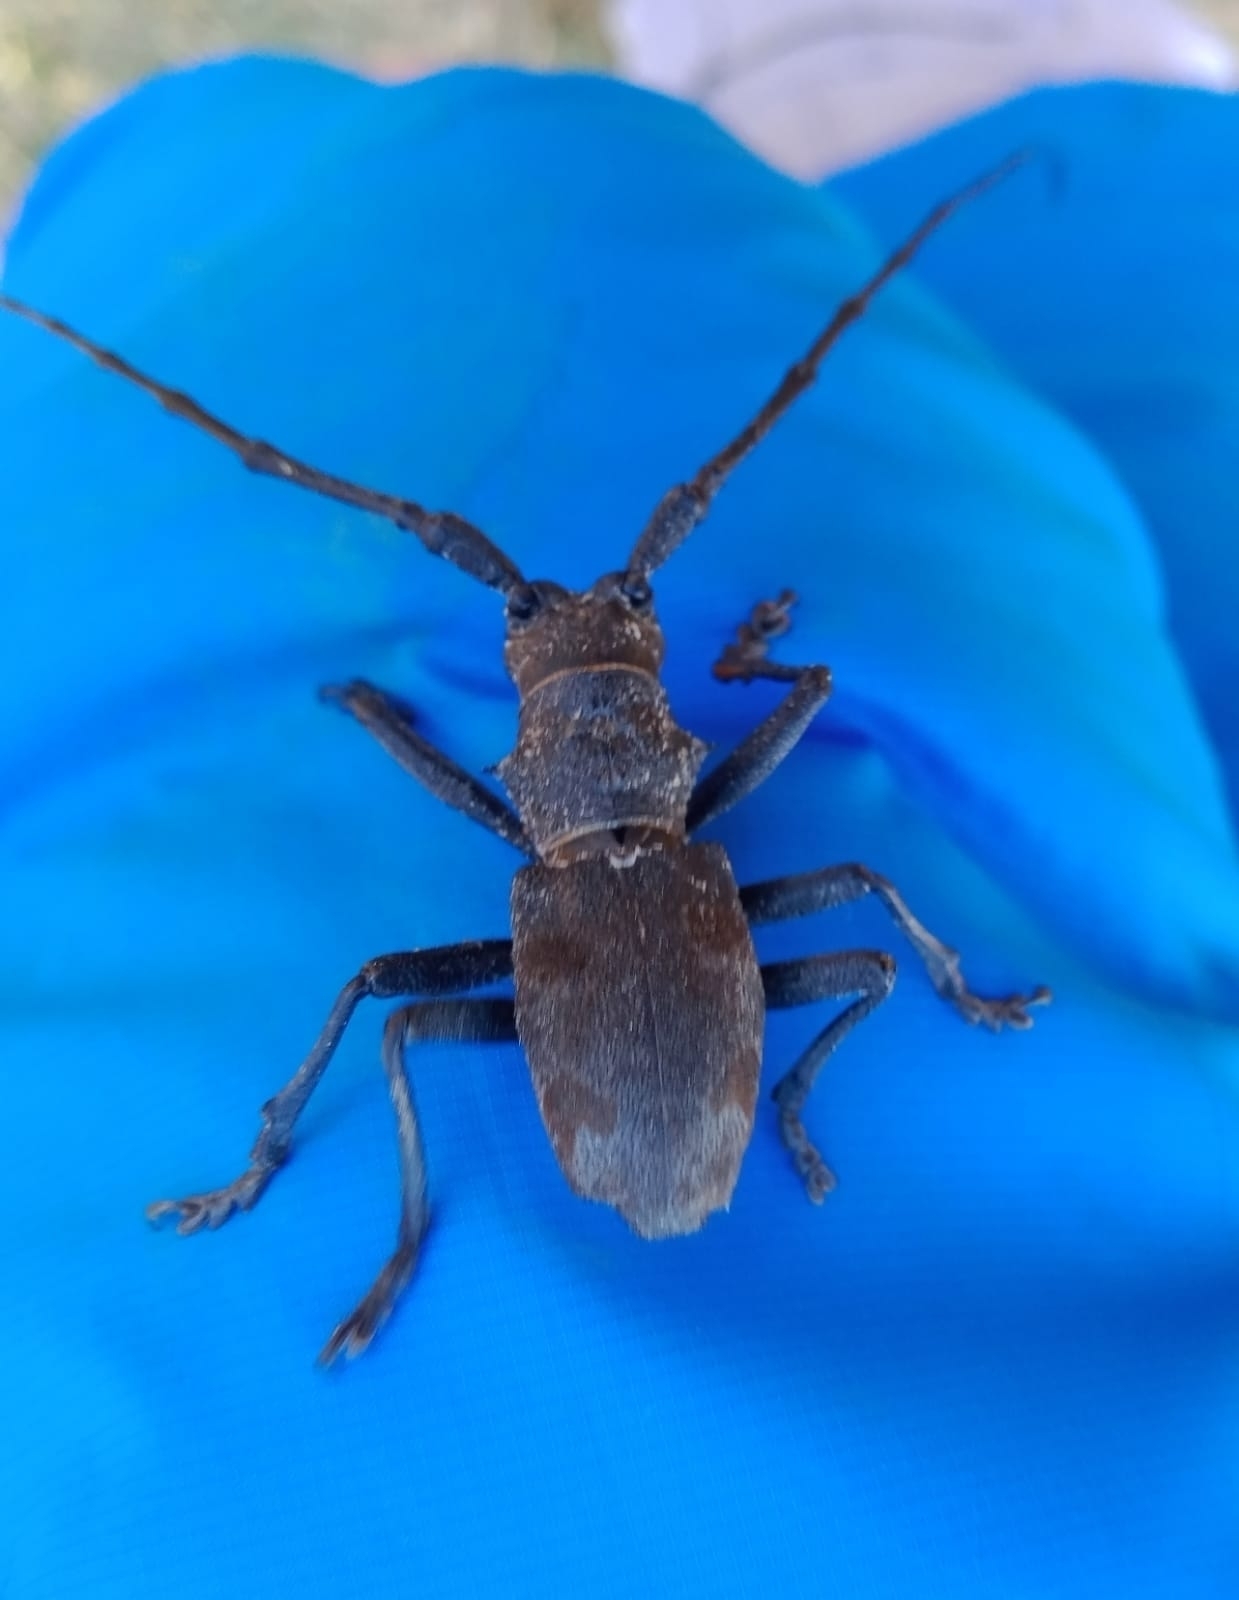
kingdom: Animalia
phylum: Arthropoda
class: Insecta
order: Coleoptera
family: Cerambycidae
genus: Morimus
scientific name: Morimus asper
